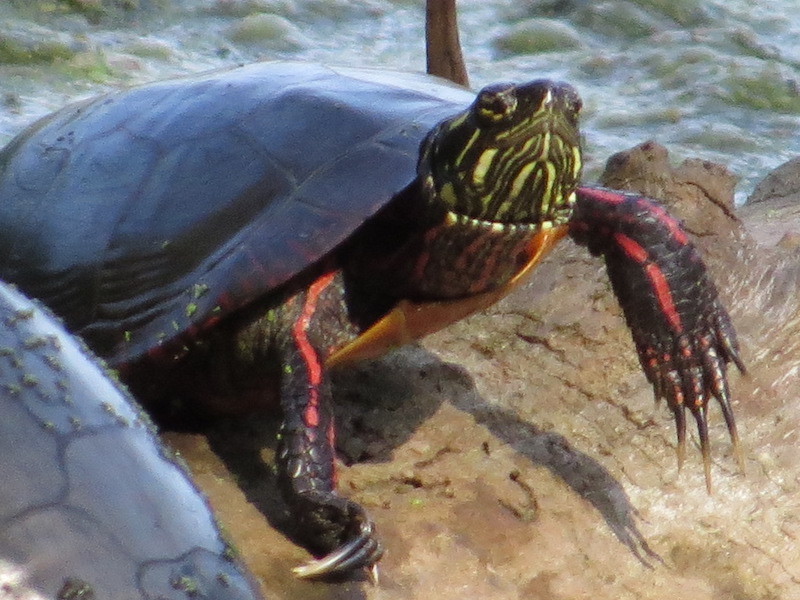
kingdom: Animalia
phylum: Chordata
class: Testudines
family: Emydidae
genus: Chrysemys
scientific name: Chrysemys picta
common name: Painted turtle
